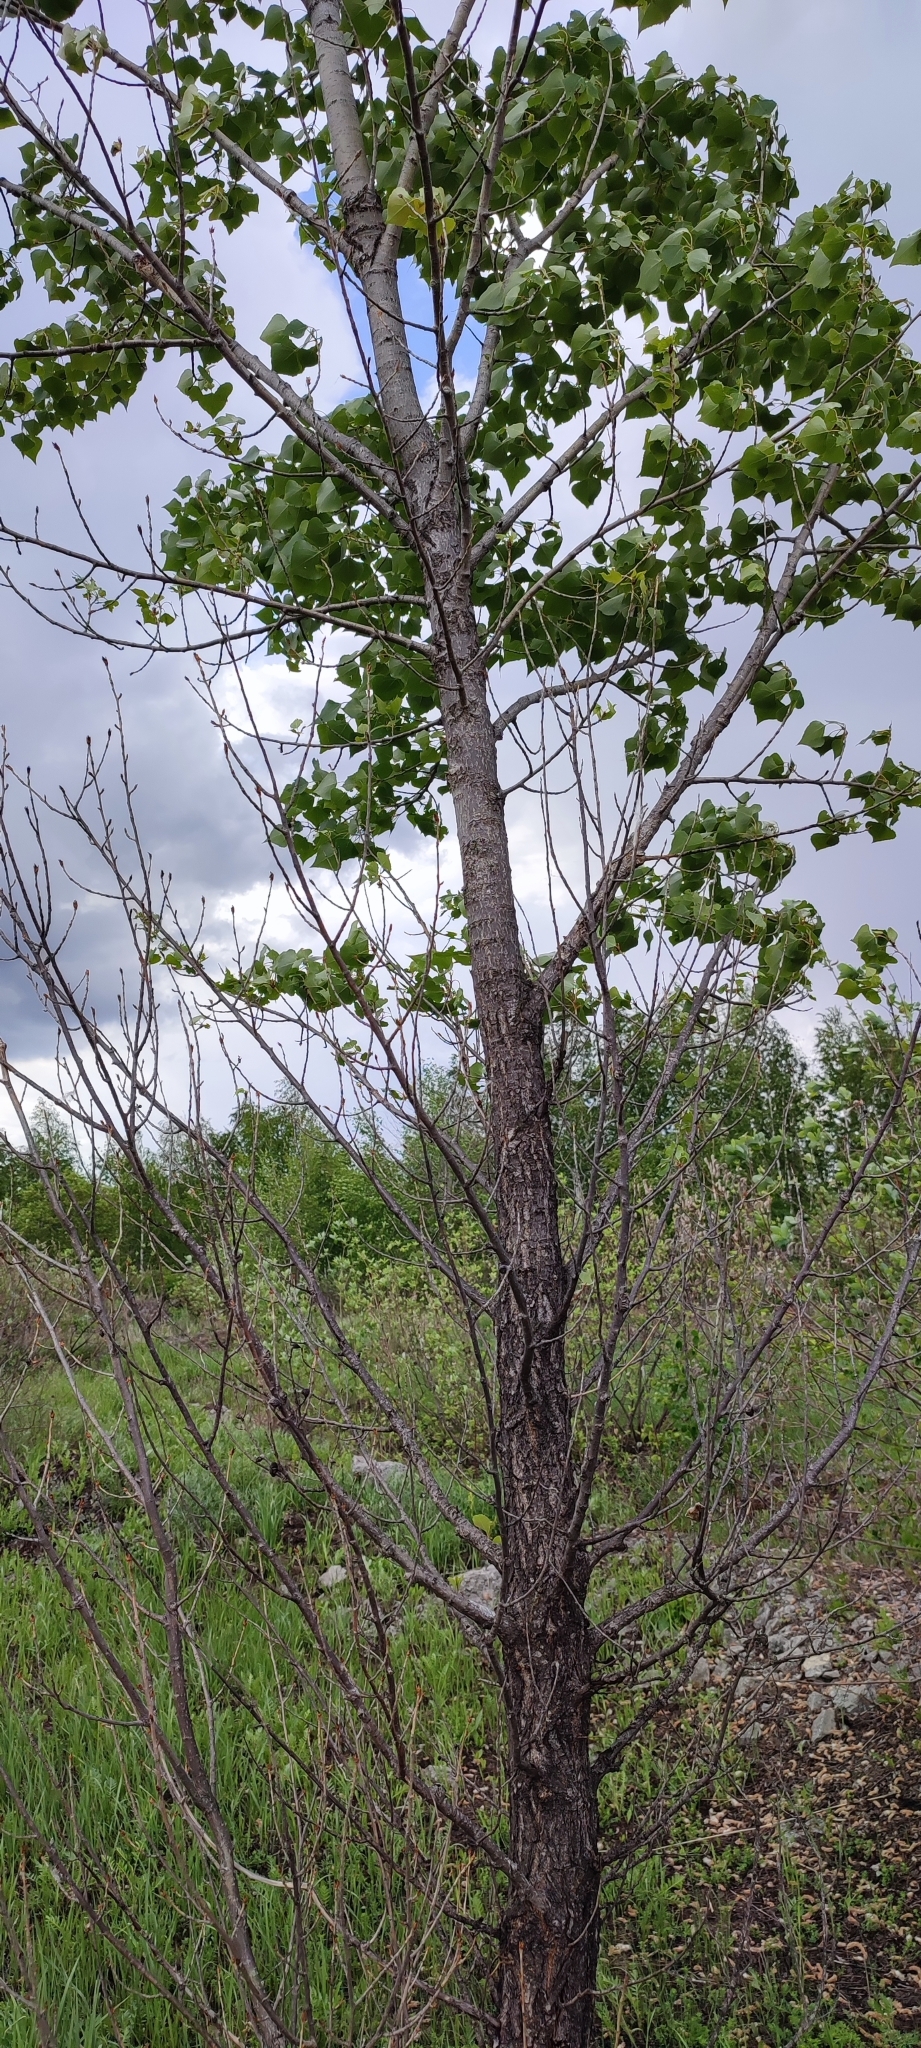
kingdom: Plantae
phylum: Tracheophyta
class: Magnoliopsida
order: Malpighiales
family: Salicaceae
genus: Populus
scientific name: Populus nigra
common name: Black poplar
